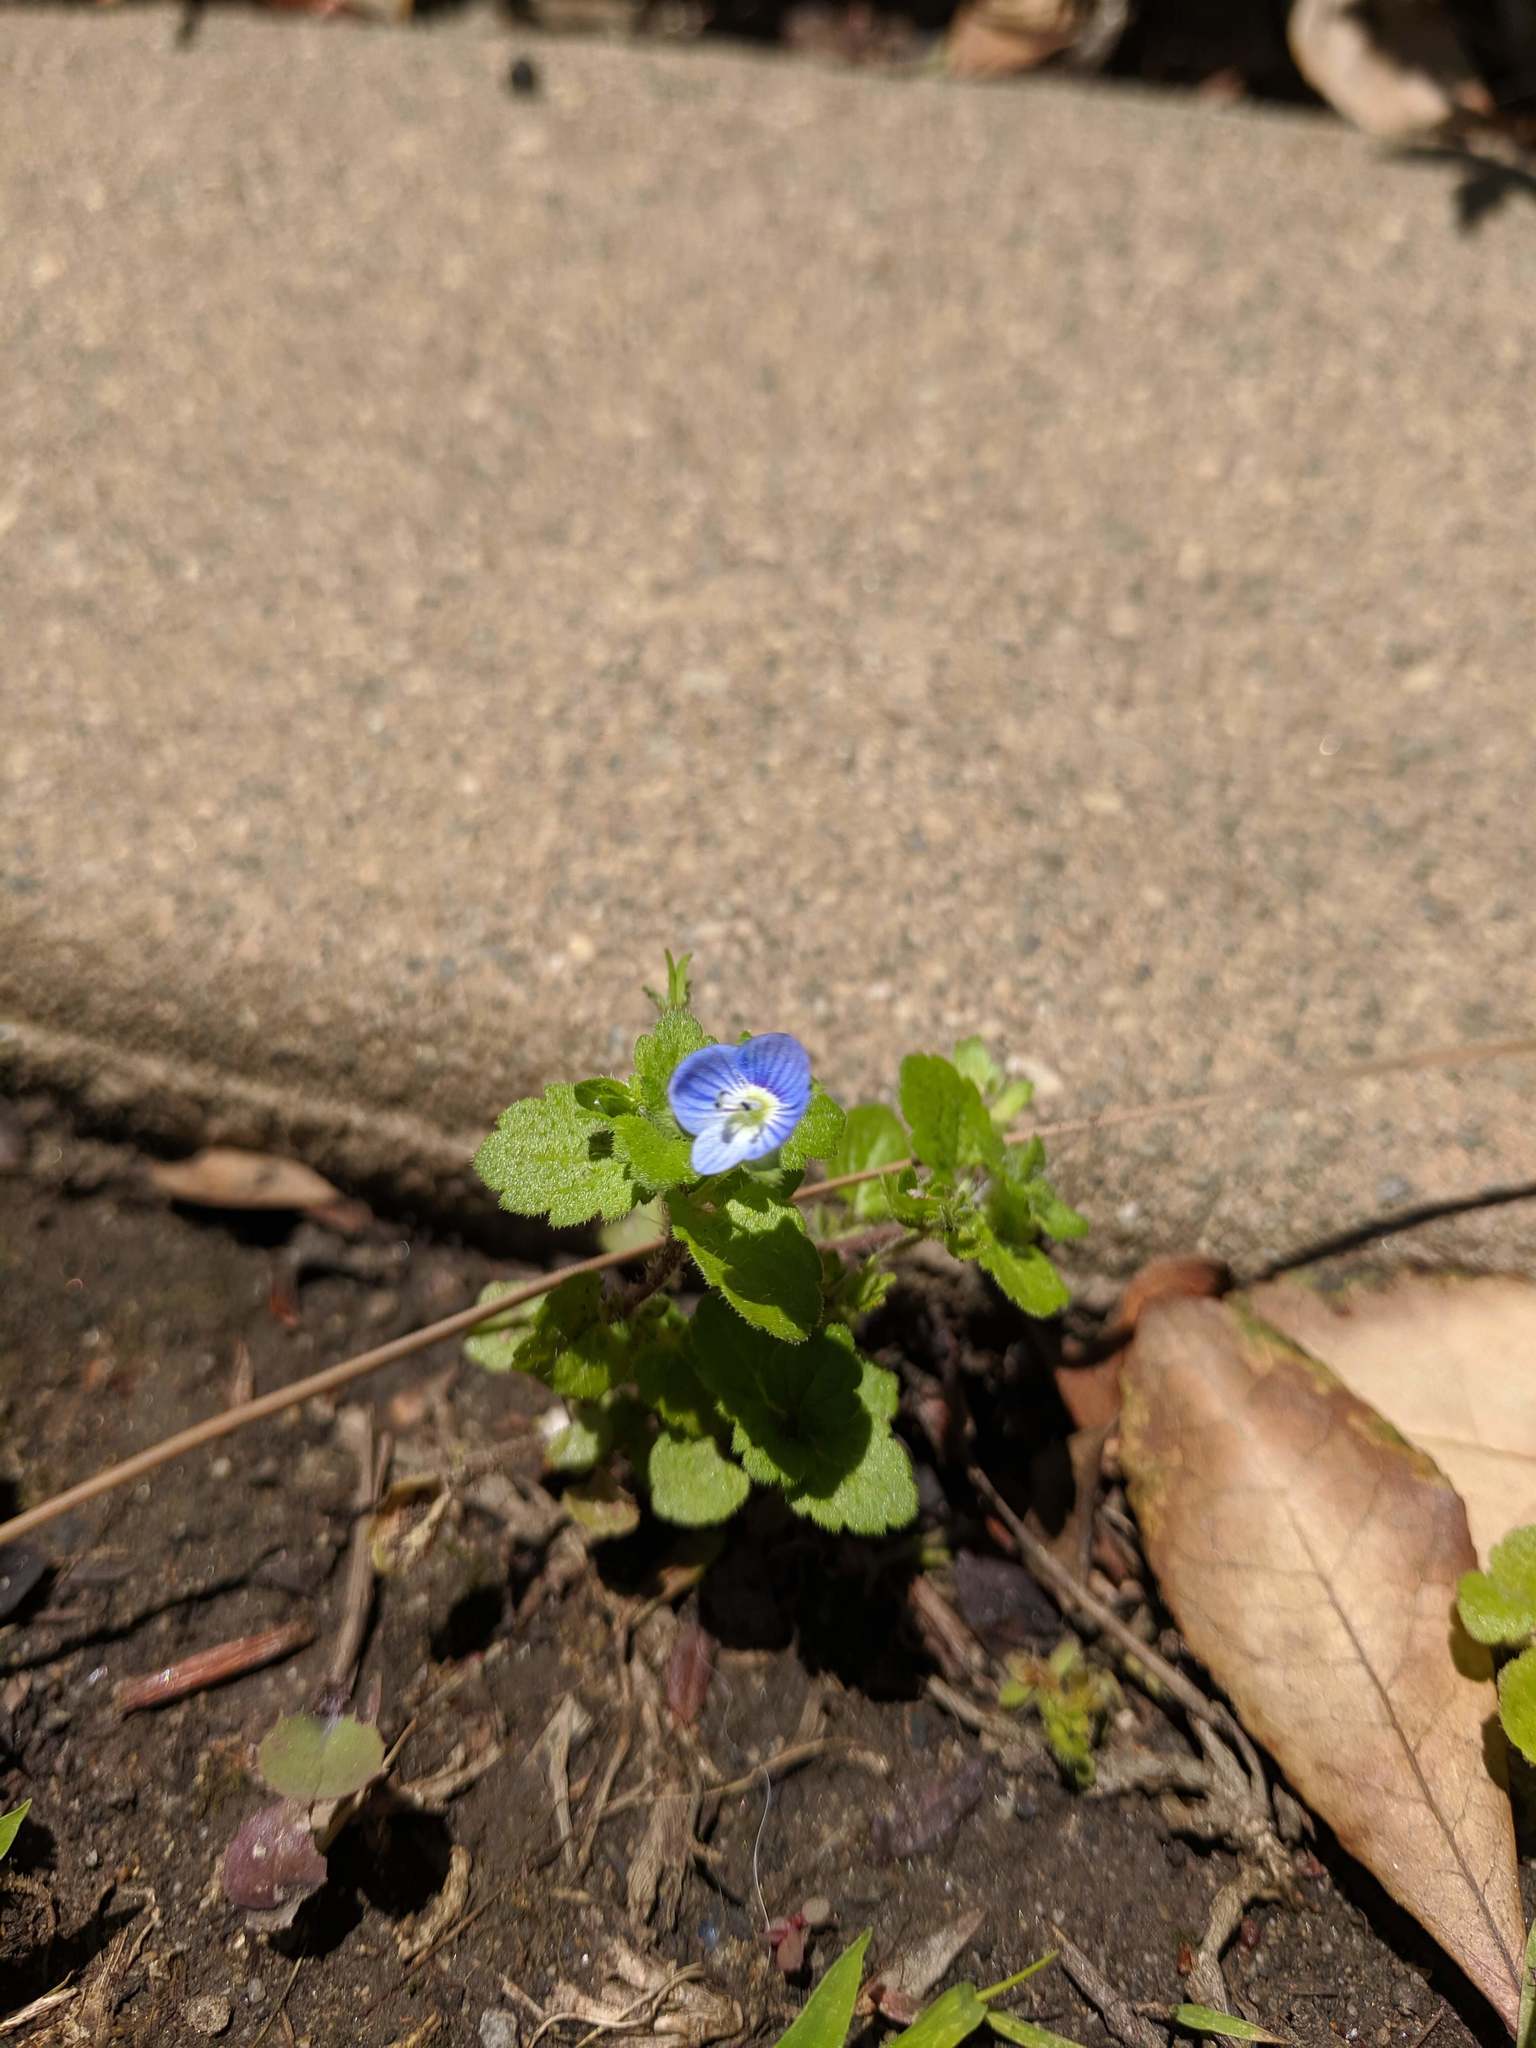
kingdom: Plantae
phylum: Tracheophyta
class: Magnoliopsida
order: Lamiales
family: Plantaginaceae
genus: Veronica
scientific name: Veronica persica
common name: Common field-speedwell
